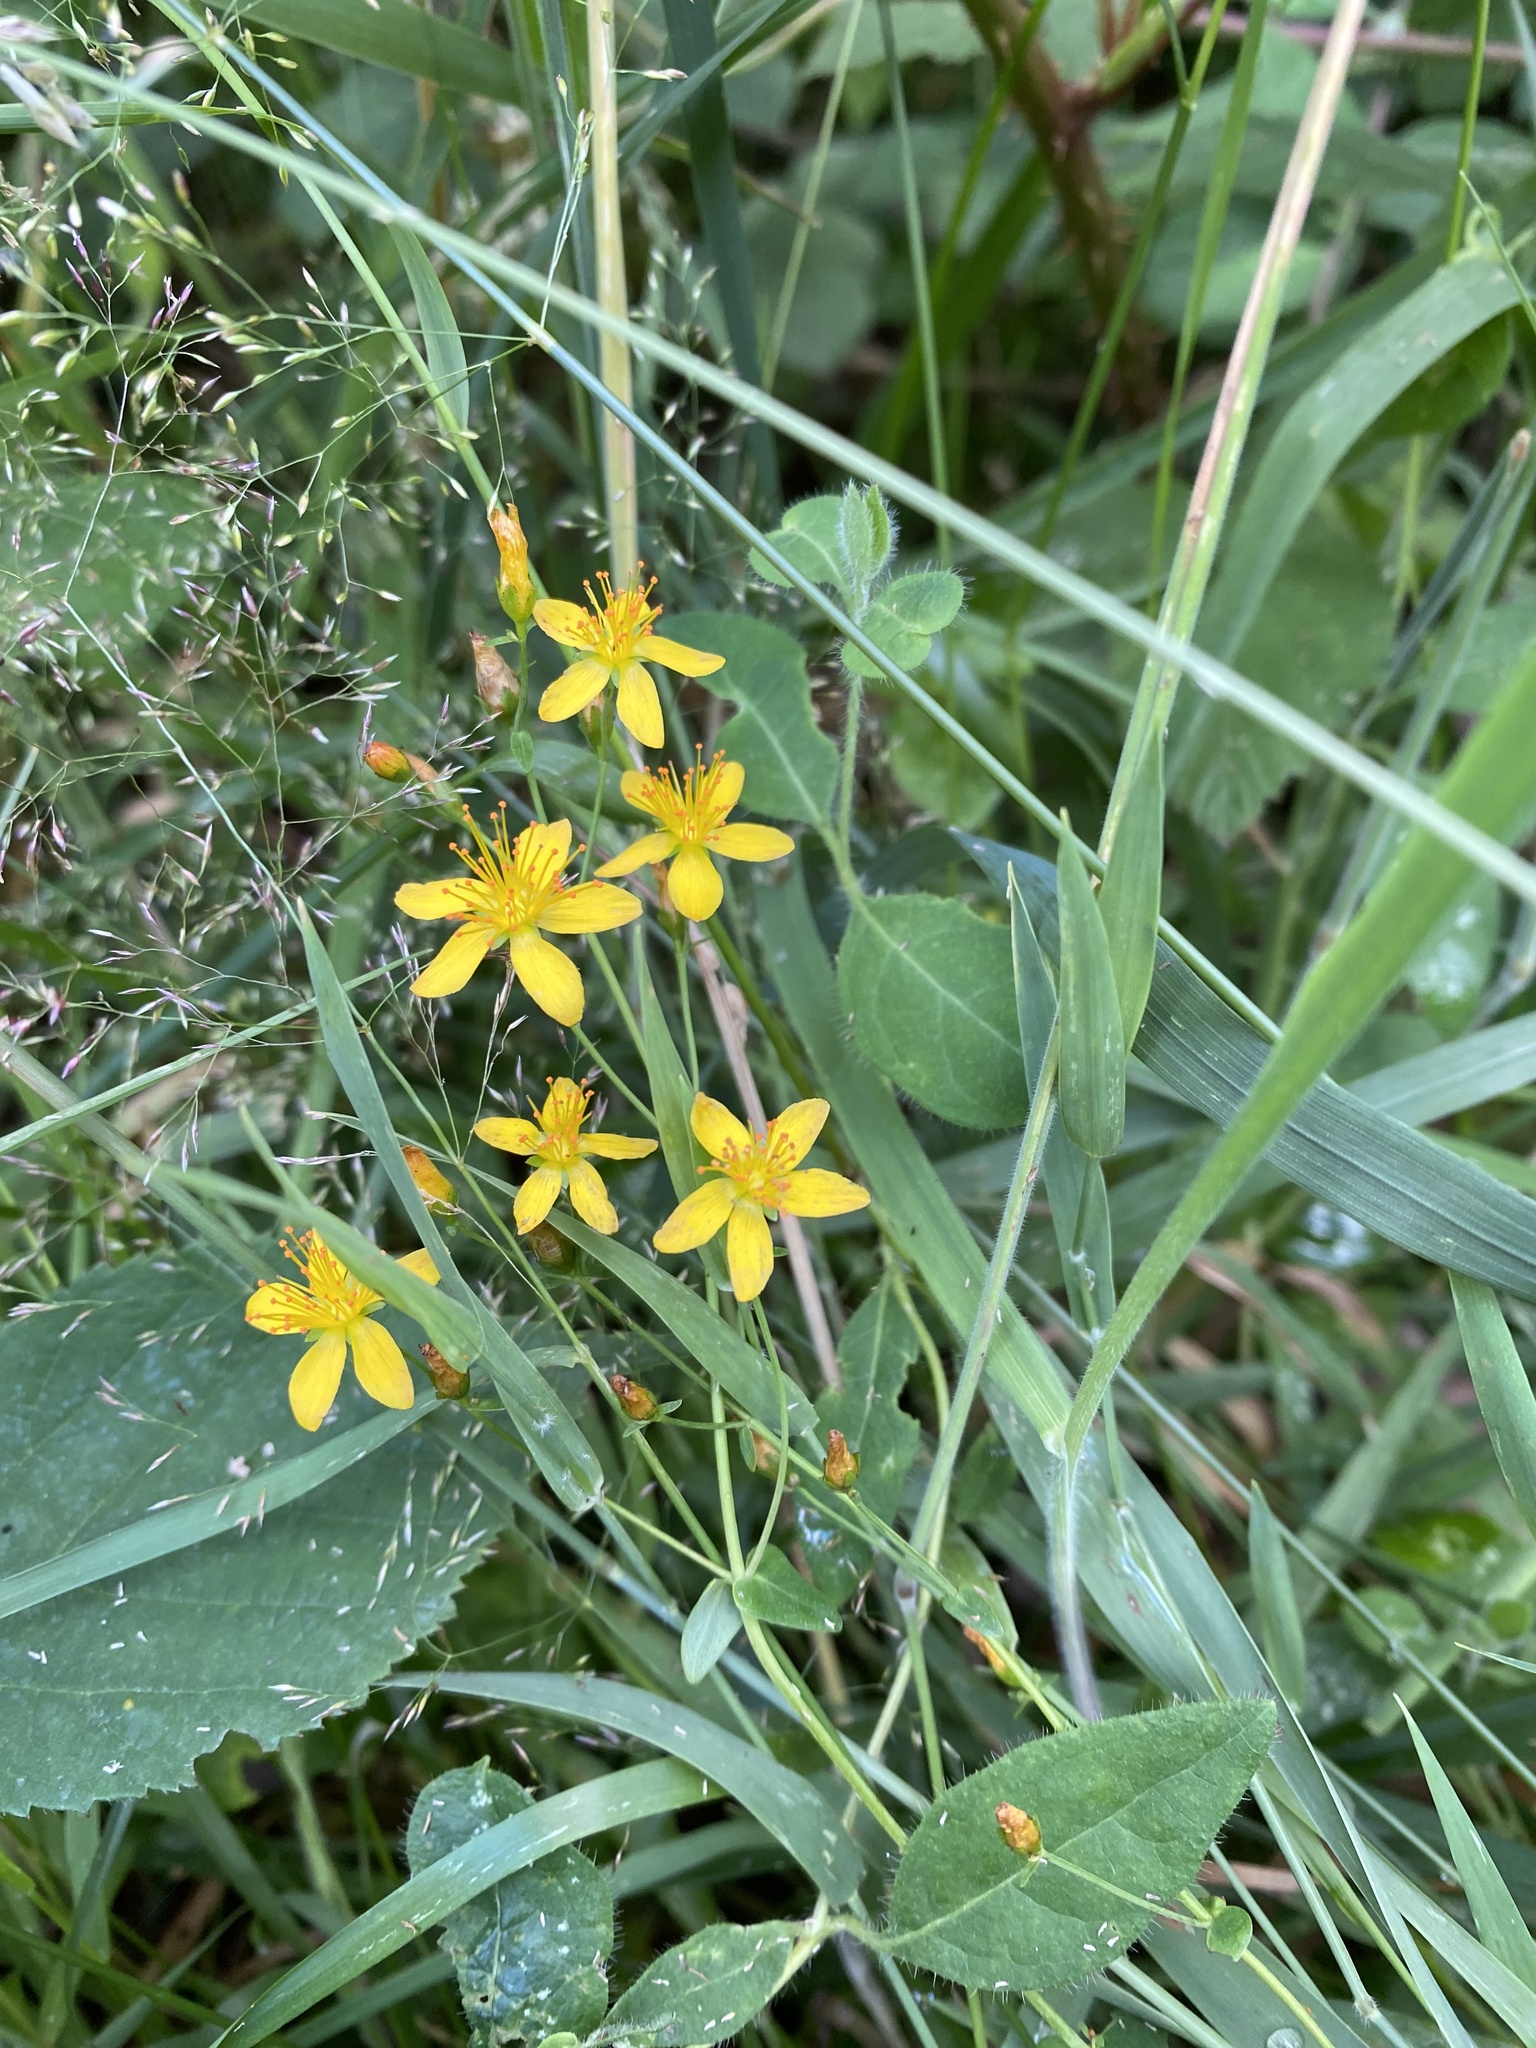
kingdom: Plantae
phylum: Tracheophyta
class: Magnoliopsida
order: Malpighiales
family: Hypericaceae
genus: Hypericum
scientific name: Hypericum pulchrum
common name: Slender st. john's-wort
